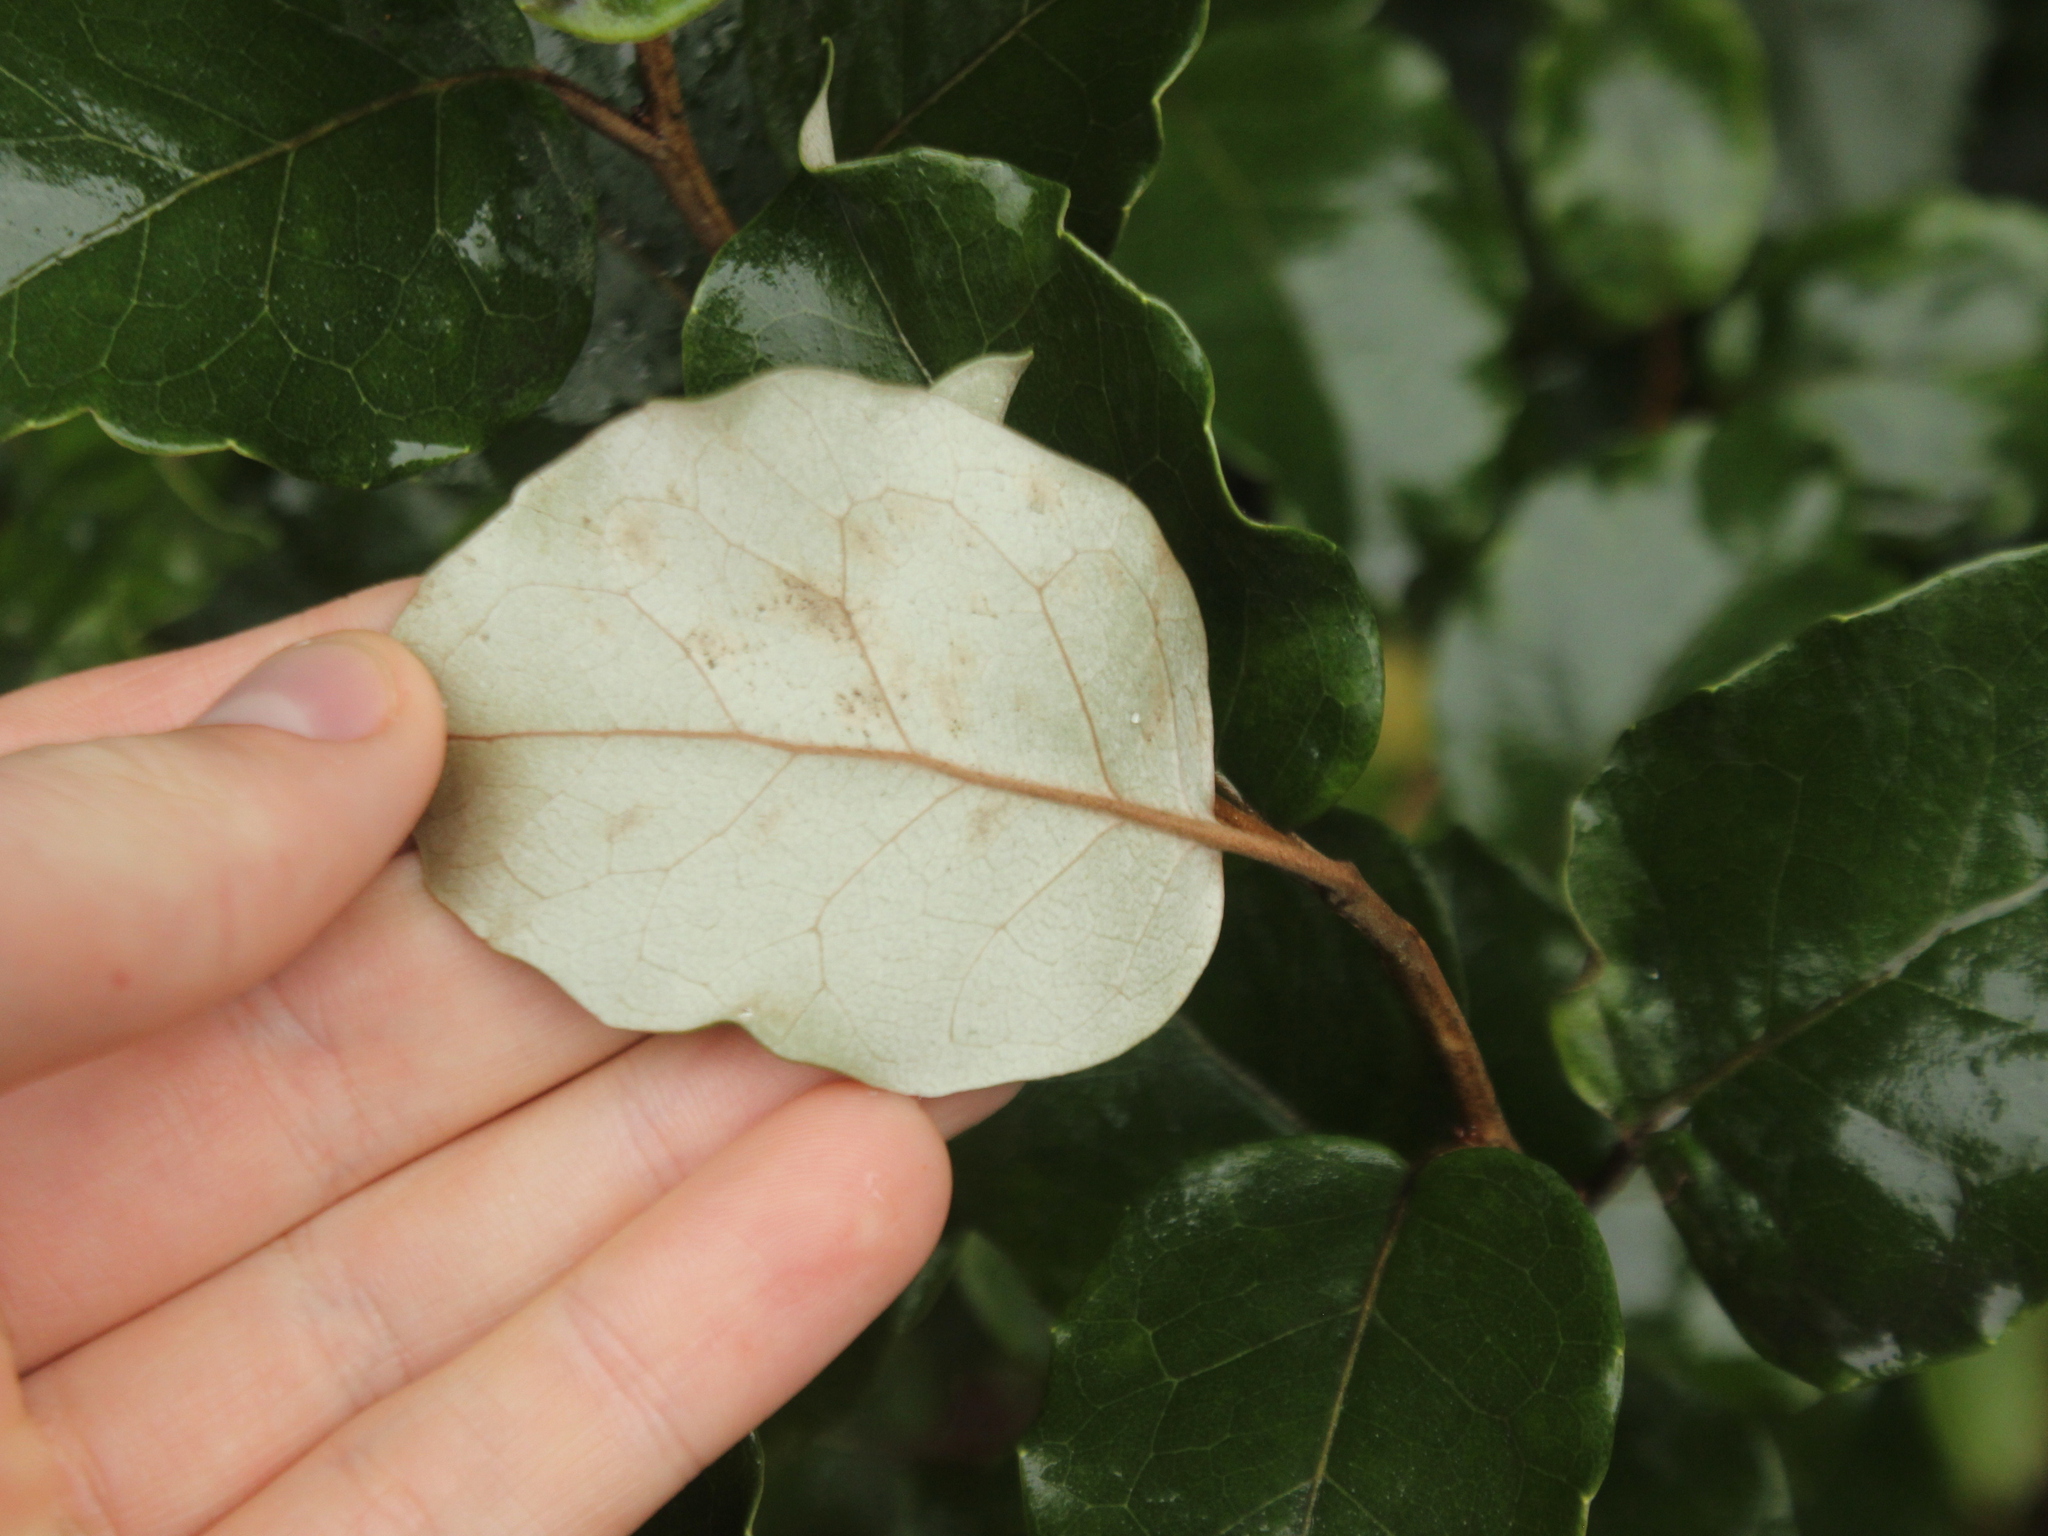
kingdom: Plantae
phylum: Tracheophyta
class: Magnoliopsida
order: Asterales
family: Asteraceae
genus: Olearia
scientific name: Olearia arborescens
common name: Glossy tree daisy
